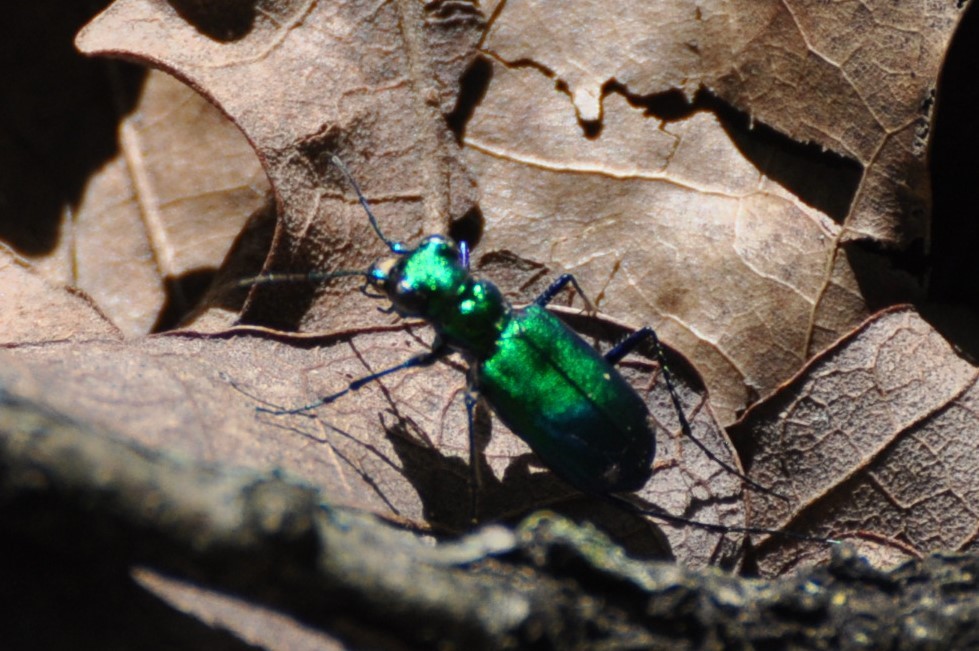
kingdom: Animalia
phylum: Arthropoda
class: Insecta
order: Coleoptera
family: Carabidae
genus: Cicindela
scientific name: Cicindela sexguttata
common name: Six-spotted tiger beetle
